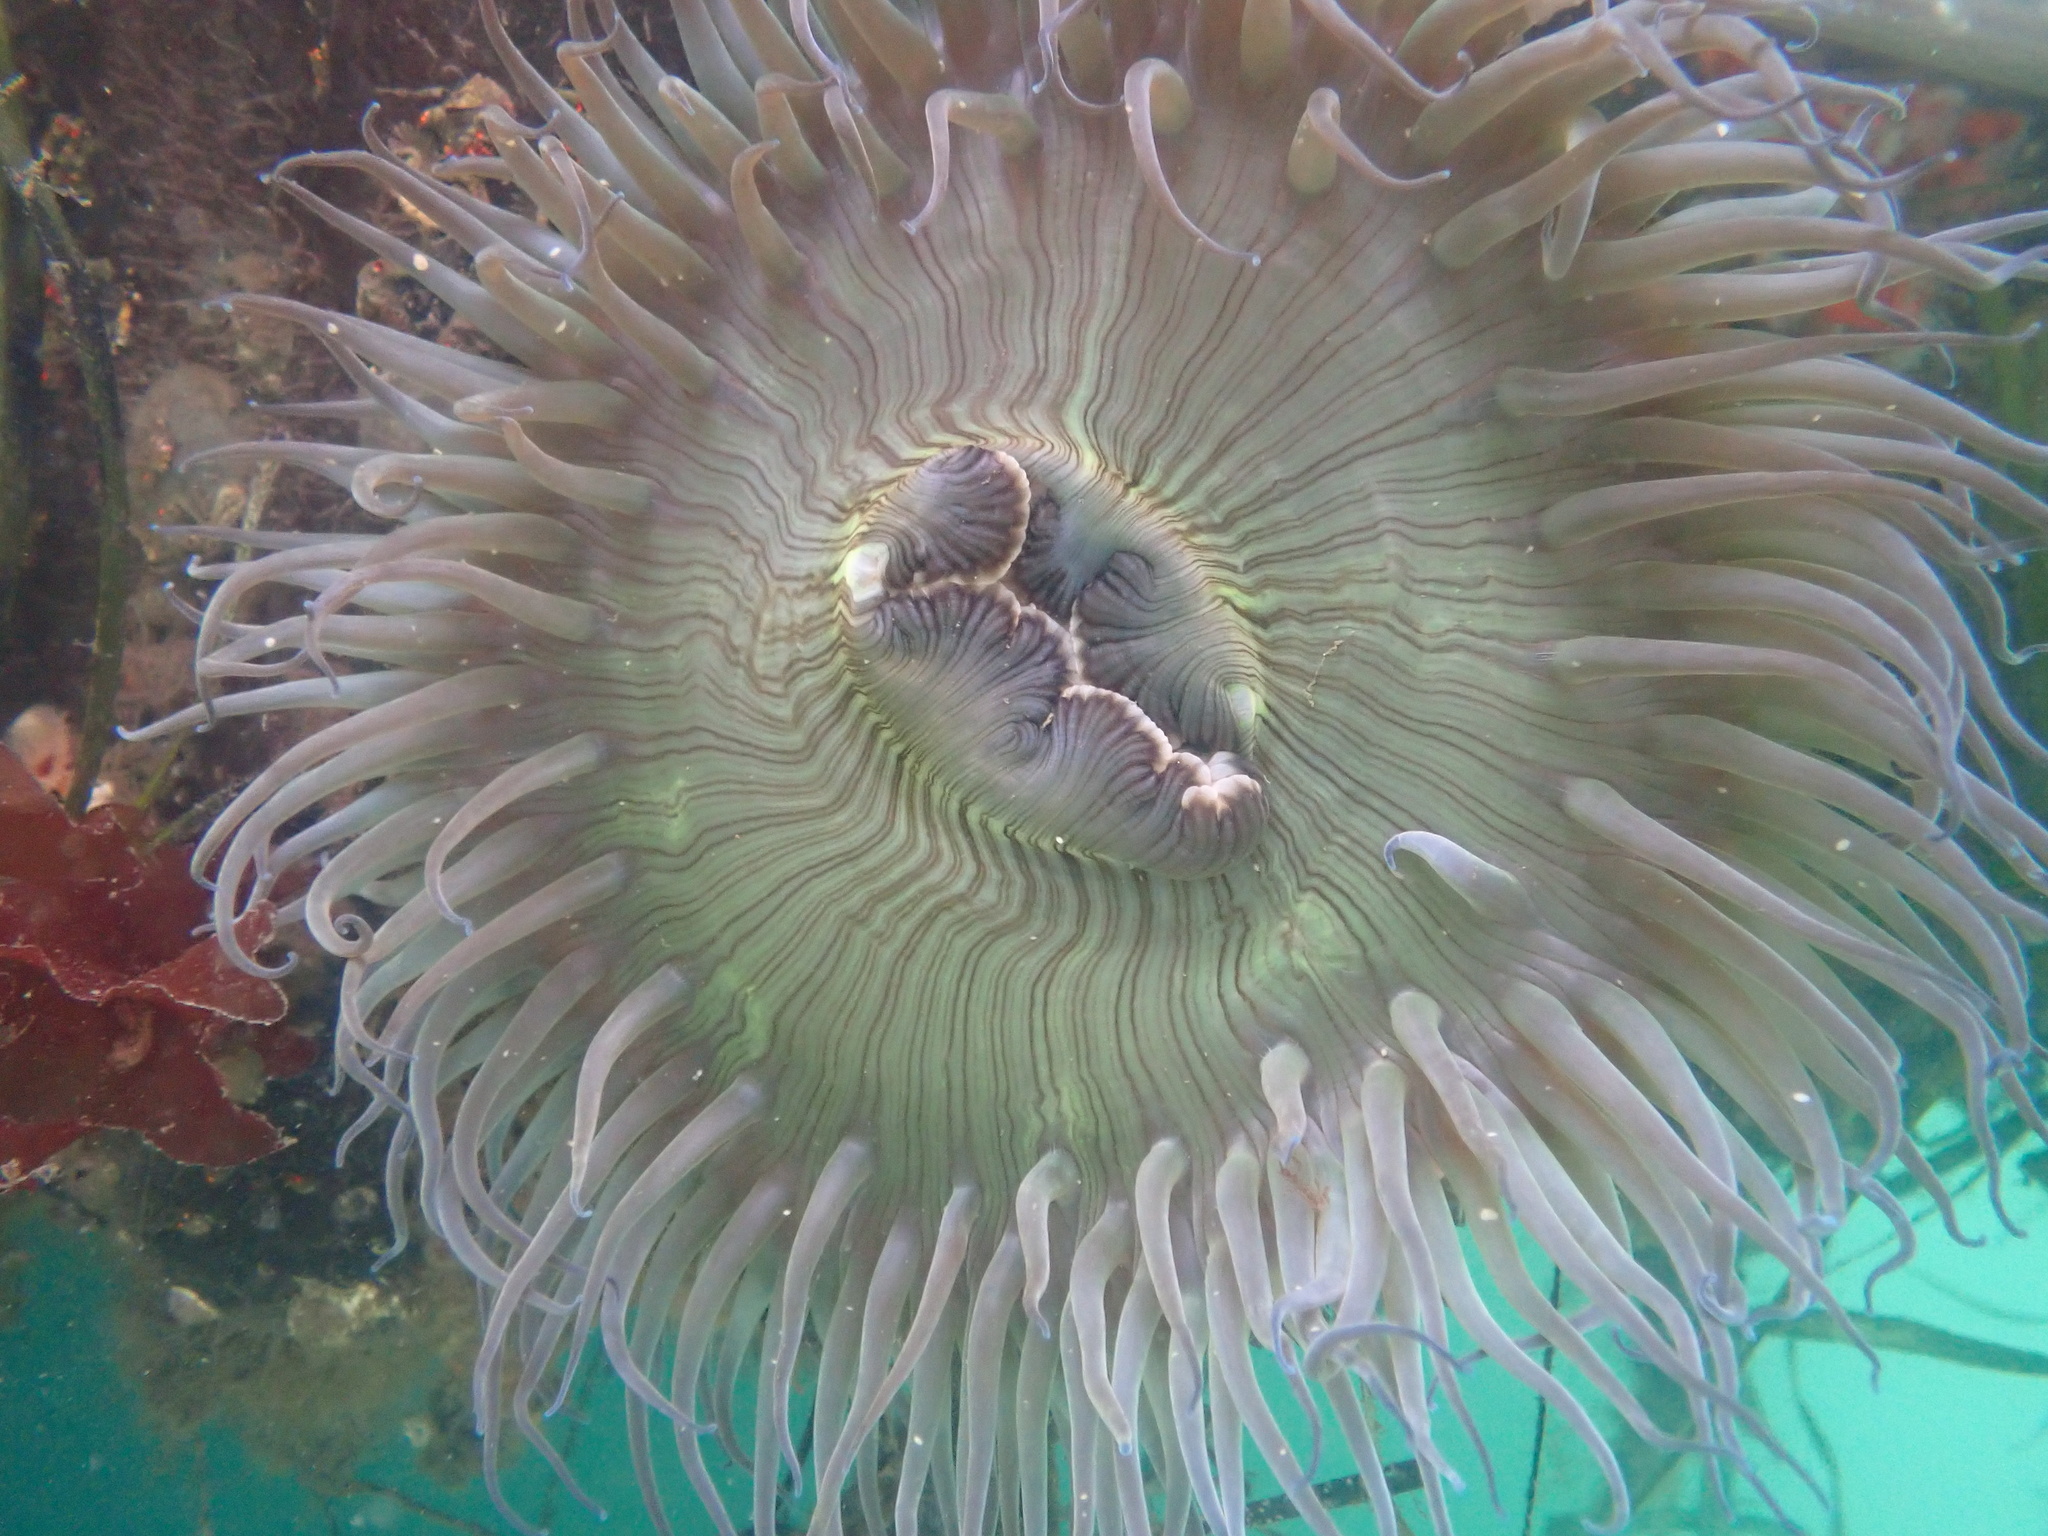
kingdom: Animalia
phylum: Cnidaria
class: Anthozoa
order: Actiniaria
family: Actiniidae
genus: Anthopleura
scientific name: Anthopleura sola
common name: Sun anemone
